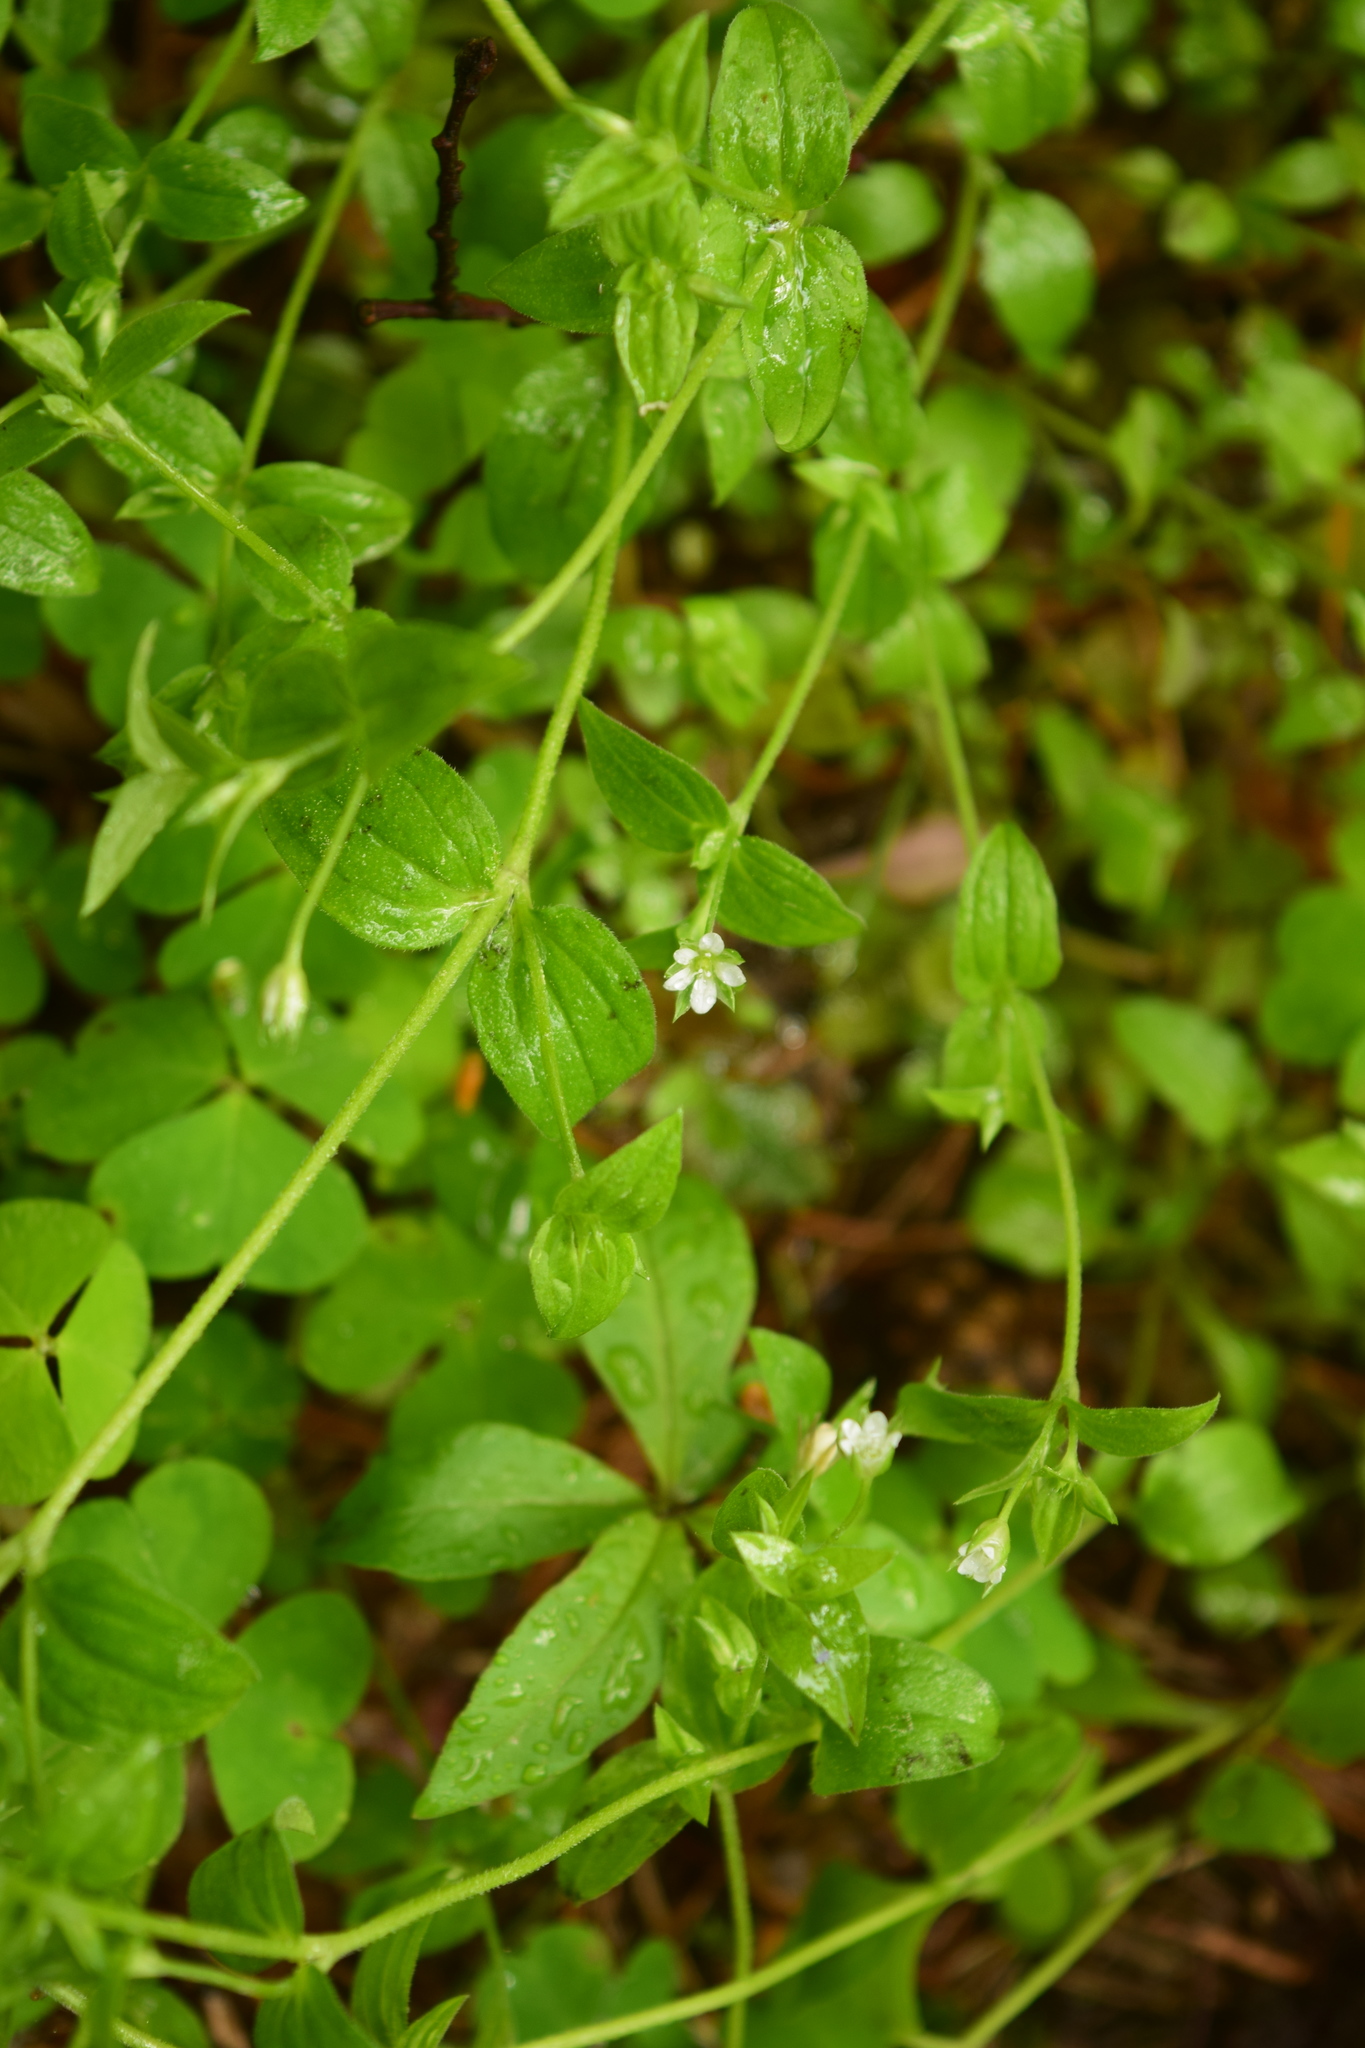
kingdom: Plantae
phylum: Tracheophyta
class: Magnoliopsida
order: Caryophyllales
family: Caryophyllaceae
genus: Moehringia
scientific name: Moehringia trinervia
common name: Three-nerved sandwort
